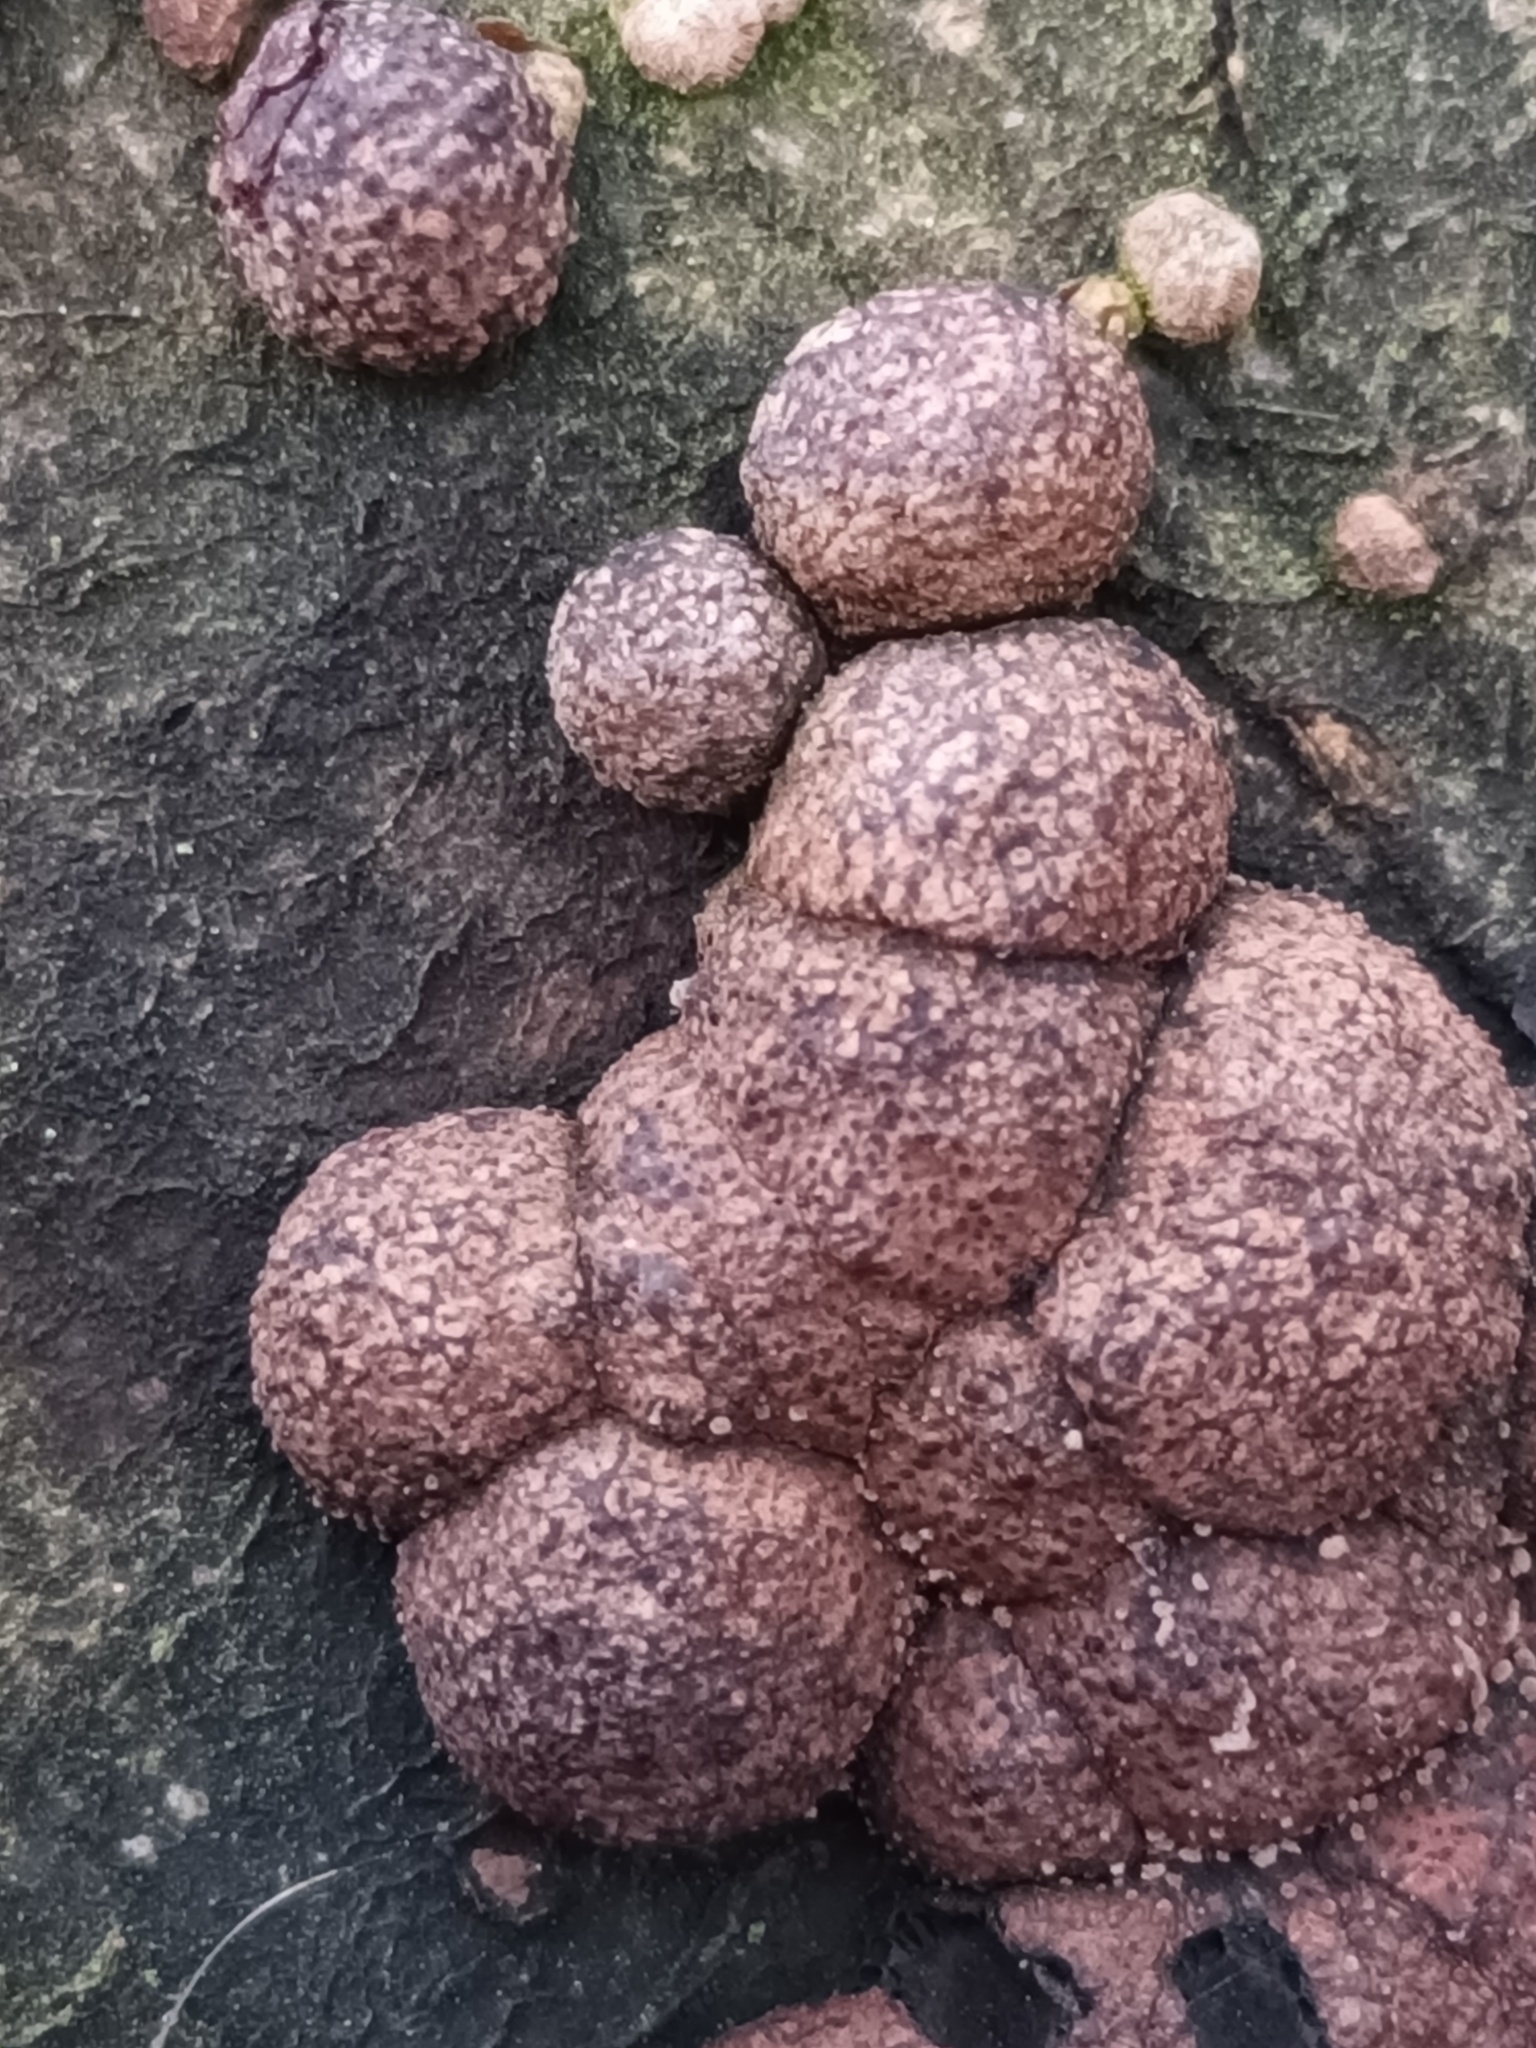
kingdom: Fungi
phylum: Ascomycota
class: Sordariomycetes
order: Xylariales
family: Hypoxylaceae
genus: Hypoxylon
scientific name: Hypoxylon fragiforme
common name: Beech woodwart
